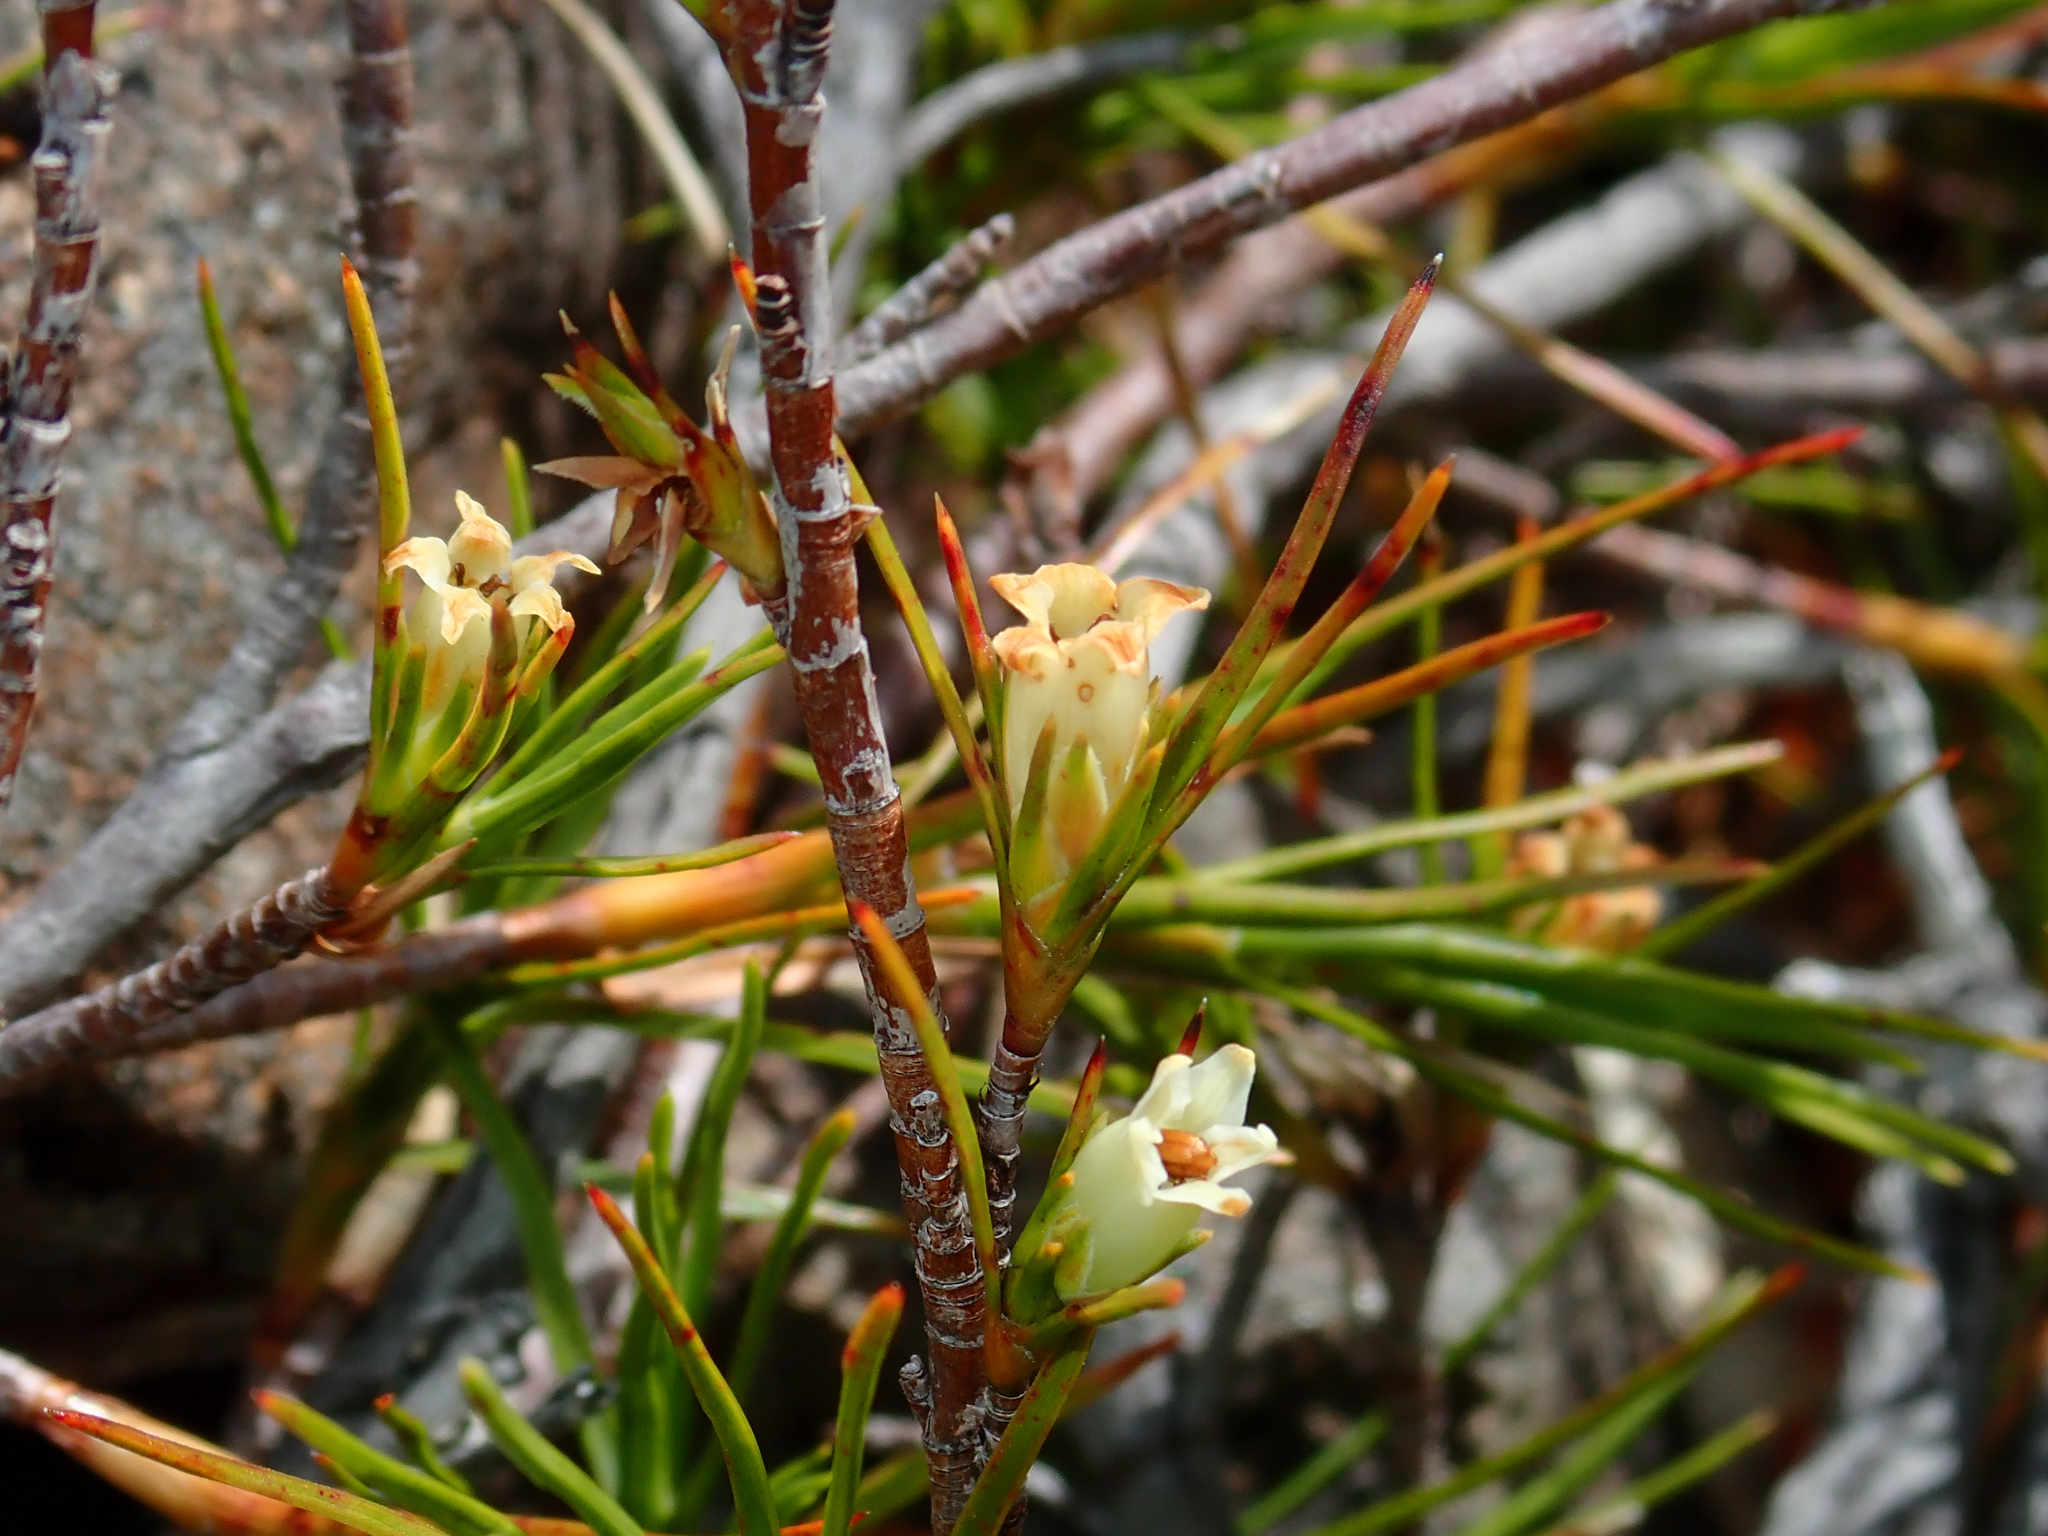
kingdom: Plantae
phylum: Tracheophyta
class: Magnoliopsida
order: Ericales
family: Ericaceae
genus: Dracophyllum
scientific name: Dracophyllum rosmarinifolium
